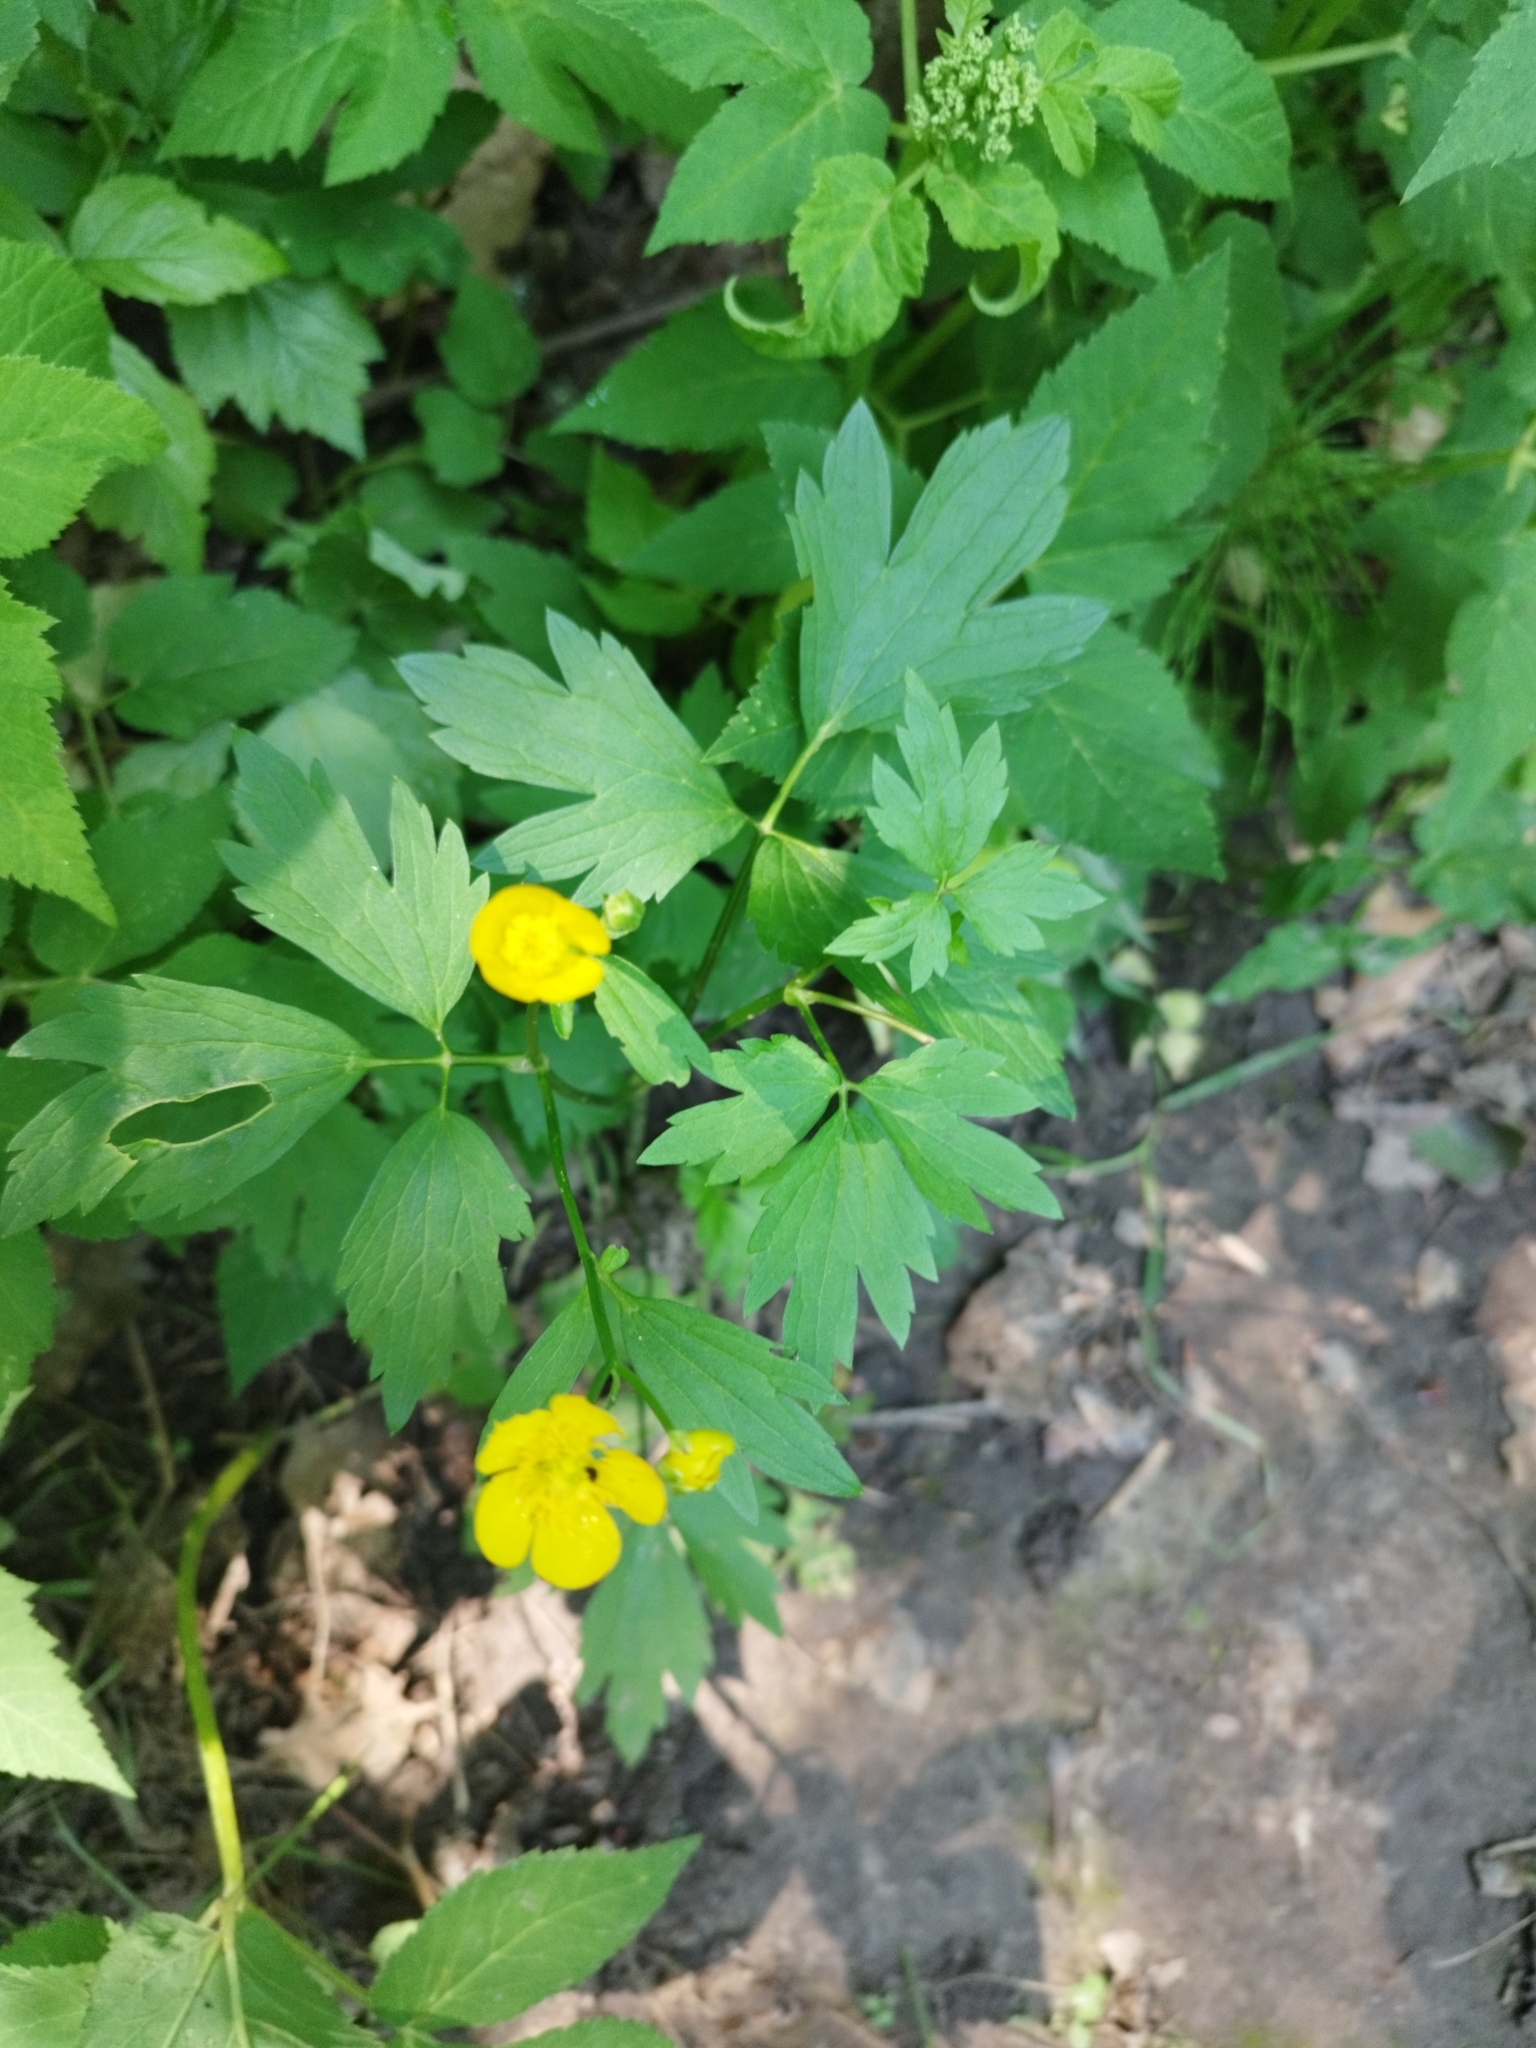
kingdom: Plantae
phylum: Tracheophyta
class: Magnoliopsida
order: Ranunculales
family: Ranunculaceae
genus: Ranunculus
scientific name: Ranunculus repens
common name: Creeping buttercup
